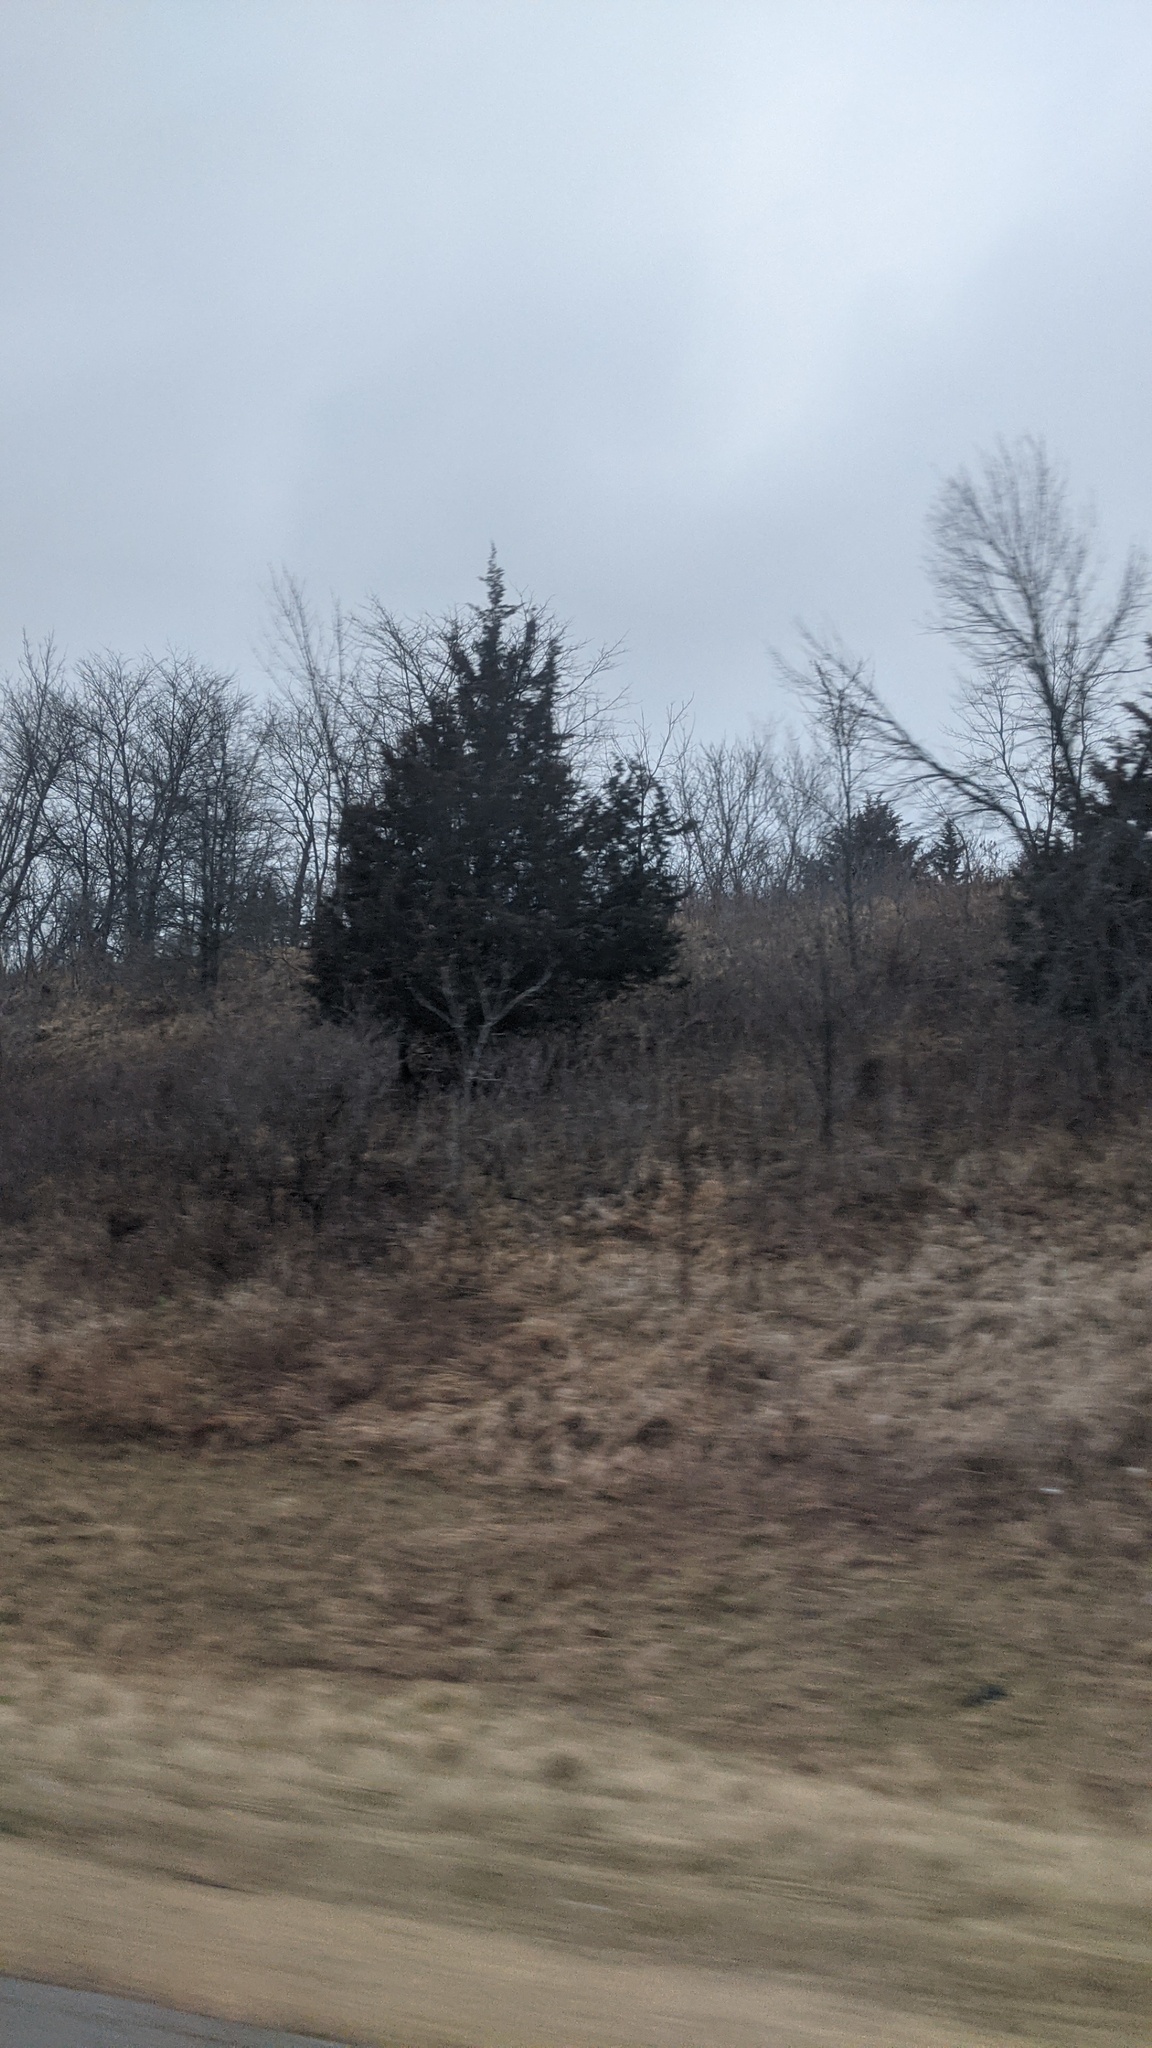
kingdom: Plantae
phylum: Tracheophyta
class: Pinopsida
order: Pinales
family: Cupressaceae
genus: Juniperus
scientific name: Juniperus virginiana
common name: Red juniper
